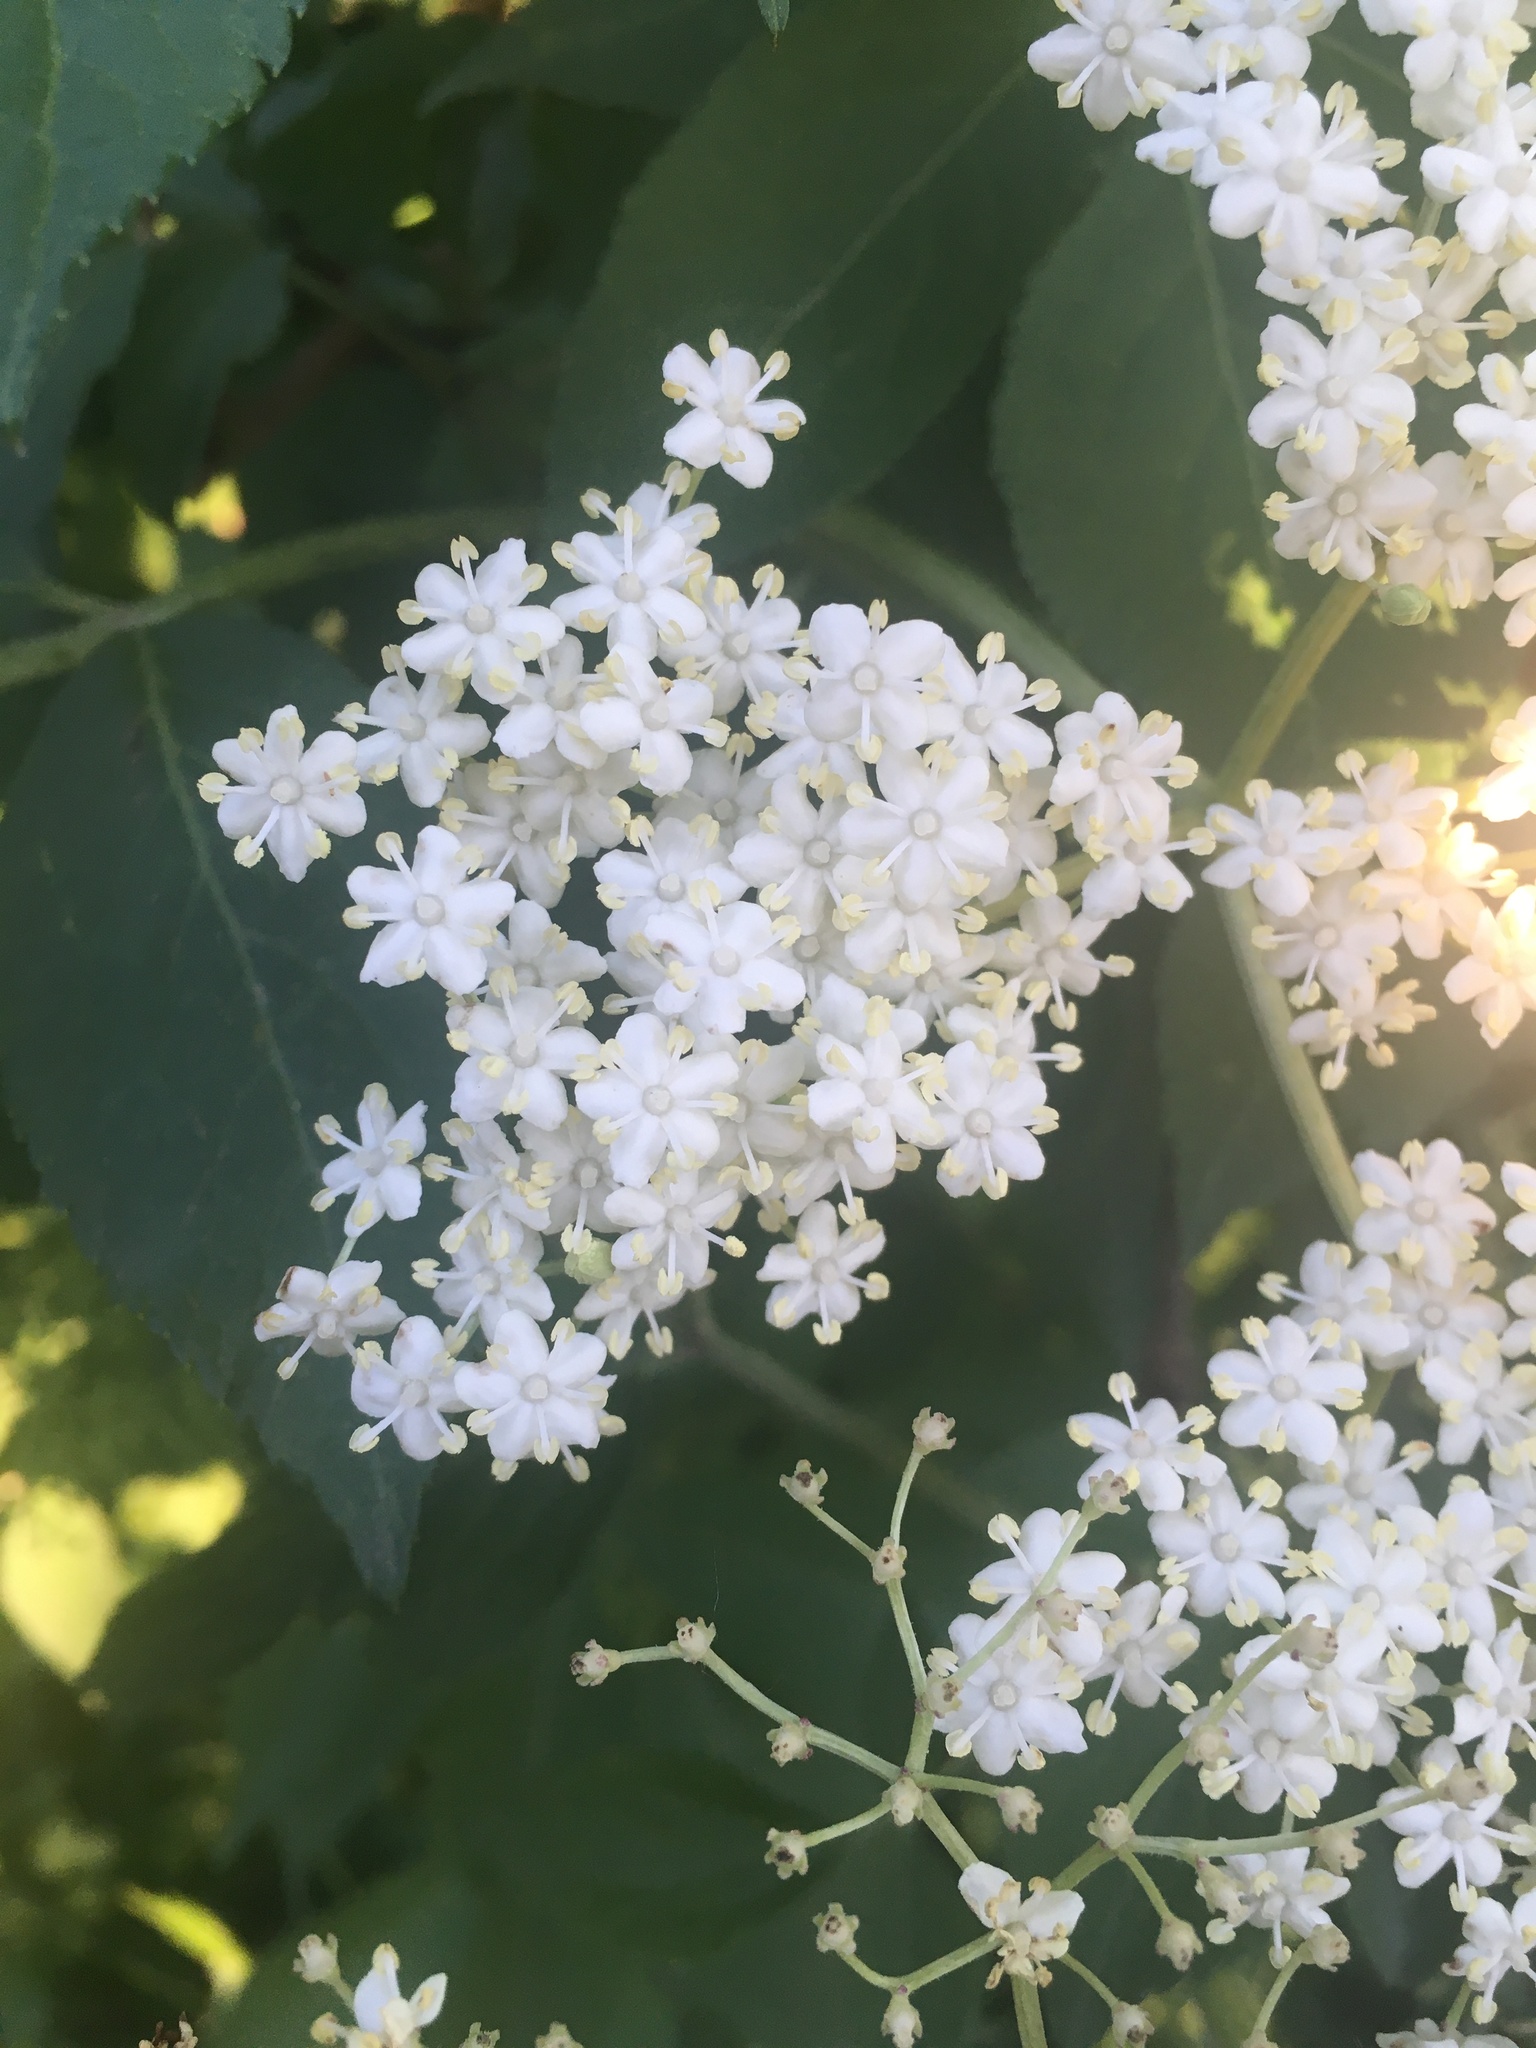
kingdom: Plantae
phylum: Tracheophyta
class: Magnoliopsida
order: Dipsacales
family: Viburnaceae
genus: Sambucus
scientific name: Sambucus nigra
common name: Elder
